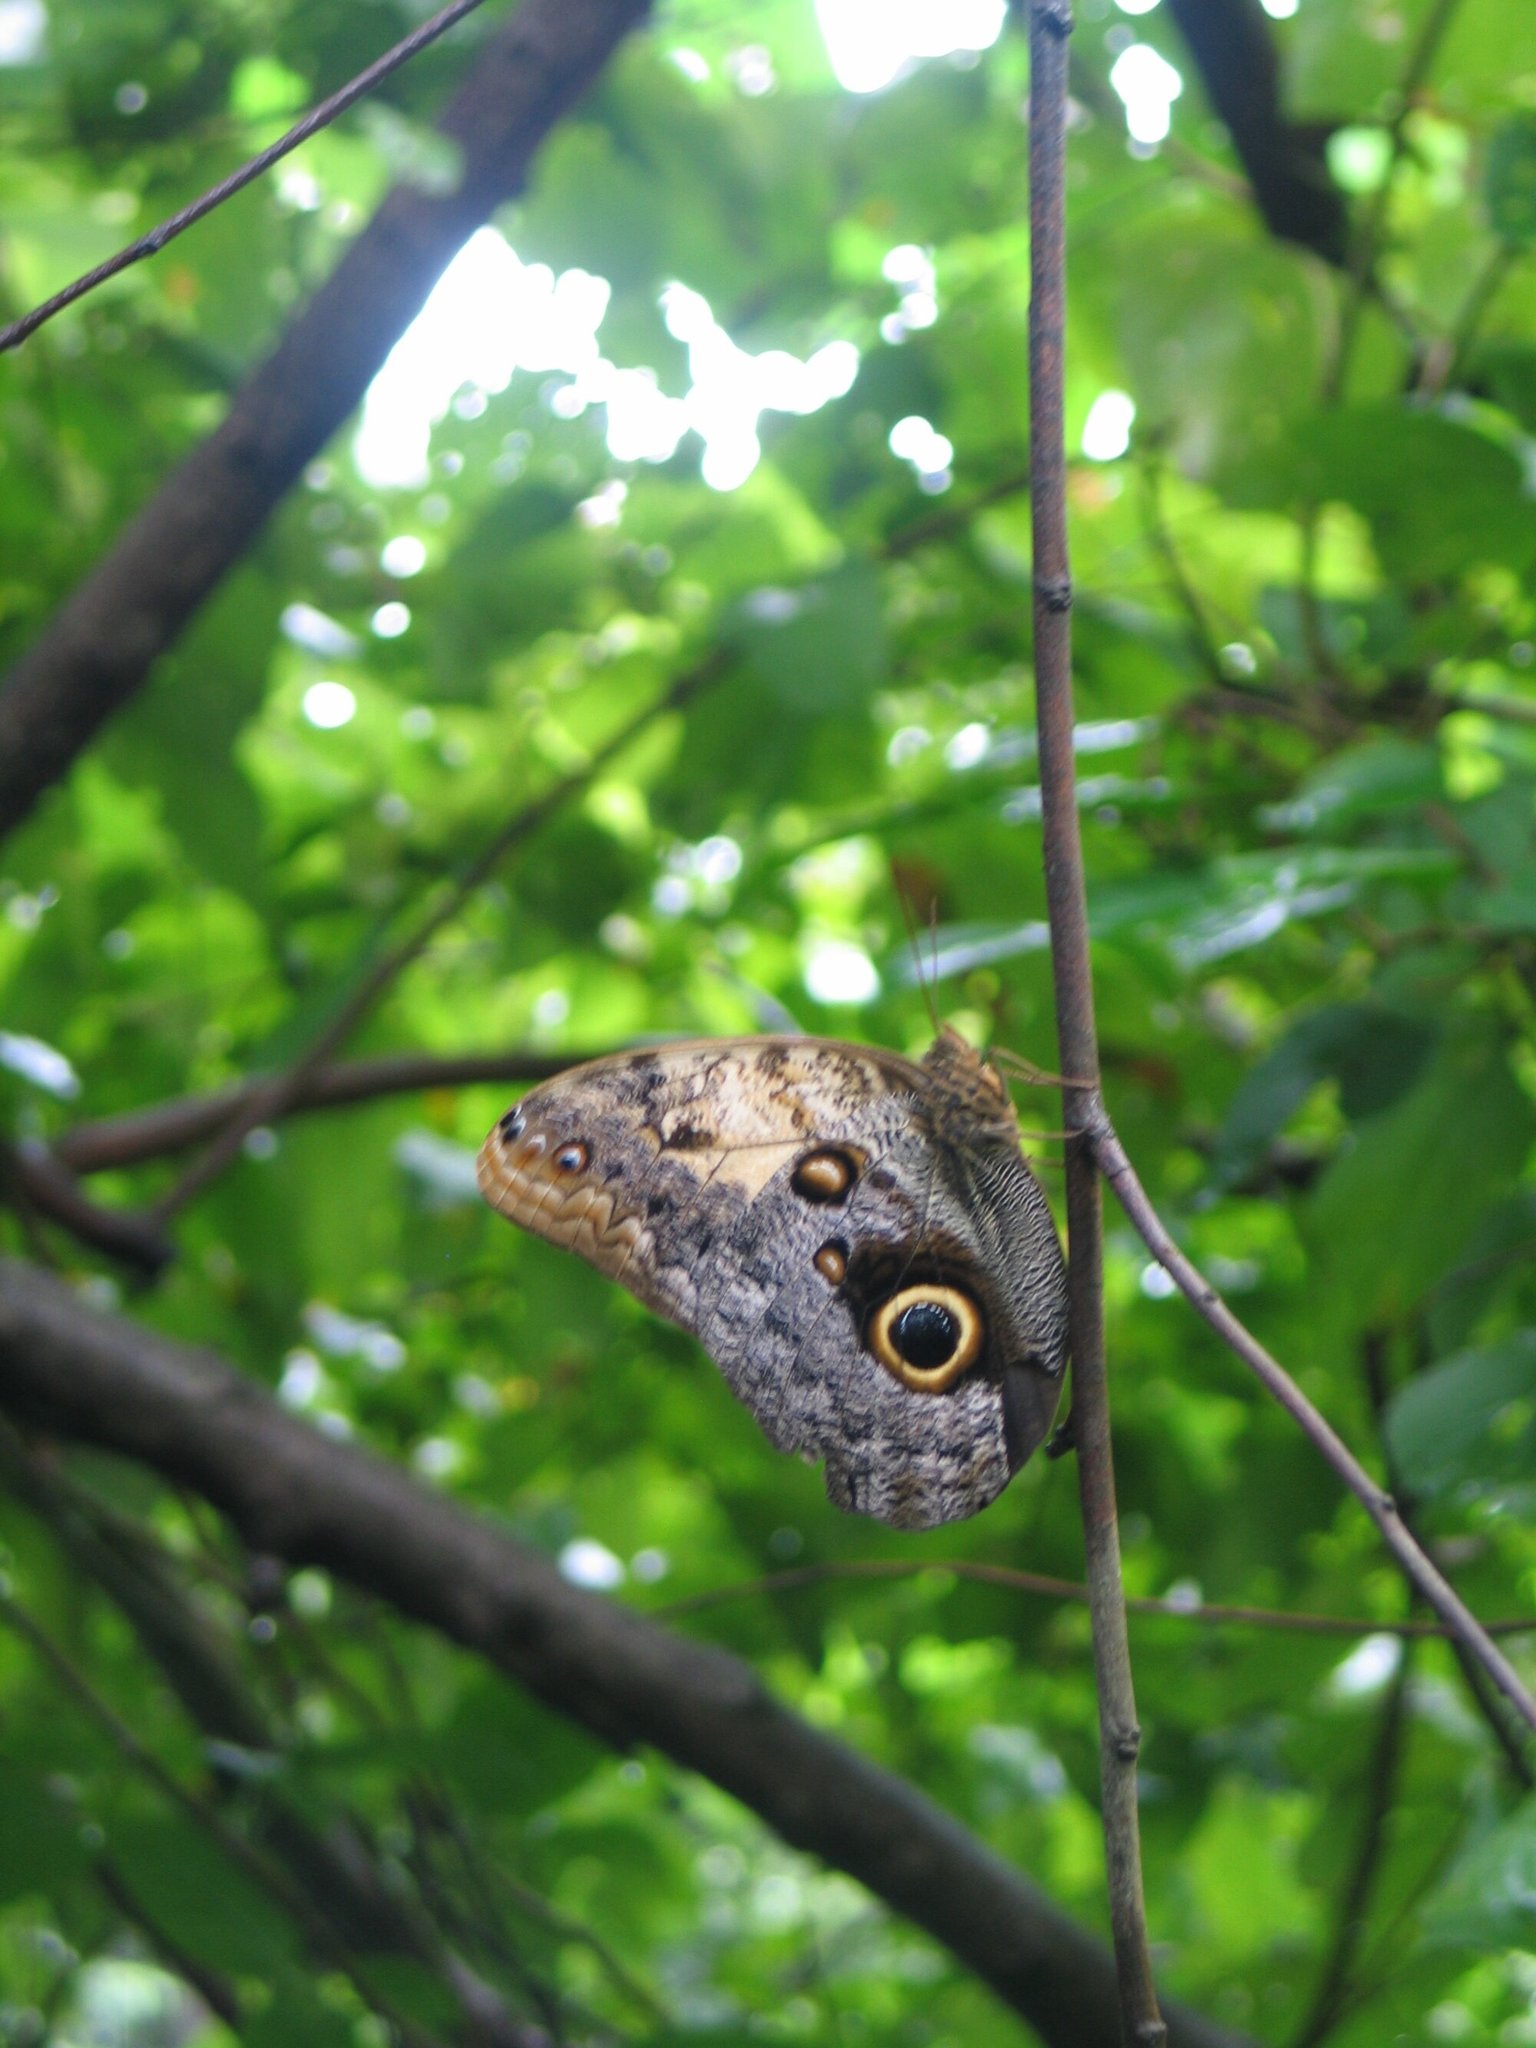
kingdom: Animalia
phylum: Arthropoda
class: Insecta
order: Lepidoptera
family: Nymphalidae
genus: Caligo
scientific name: Caligo telamonius
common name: Pale owl-butterfly
